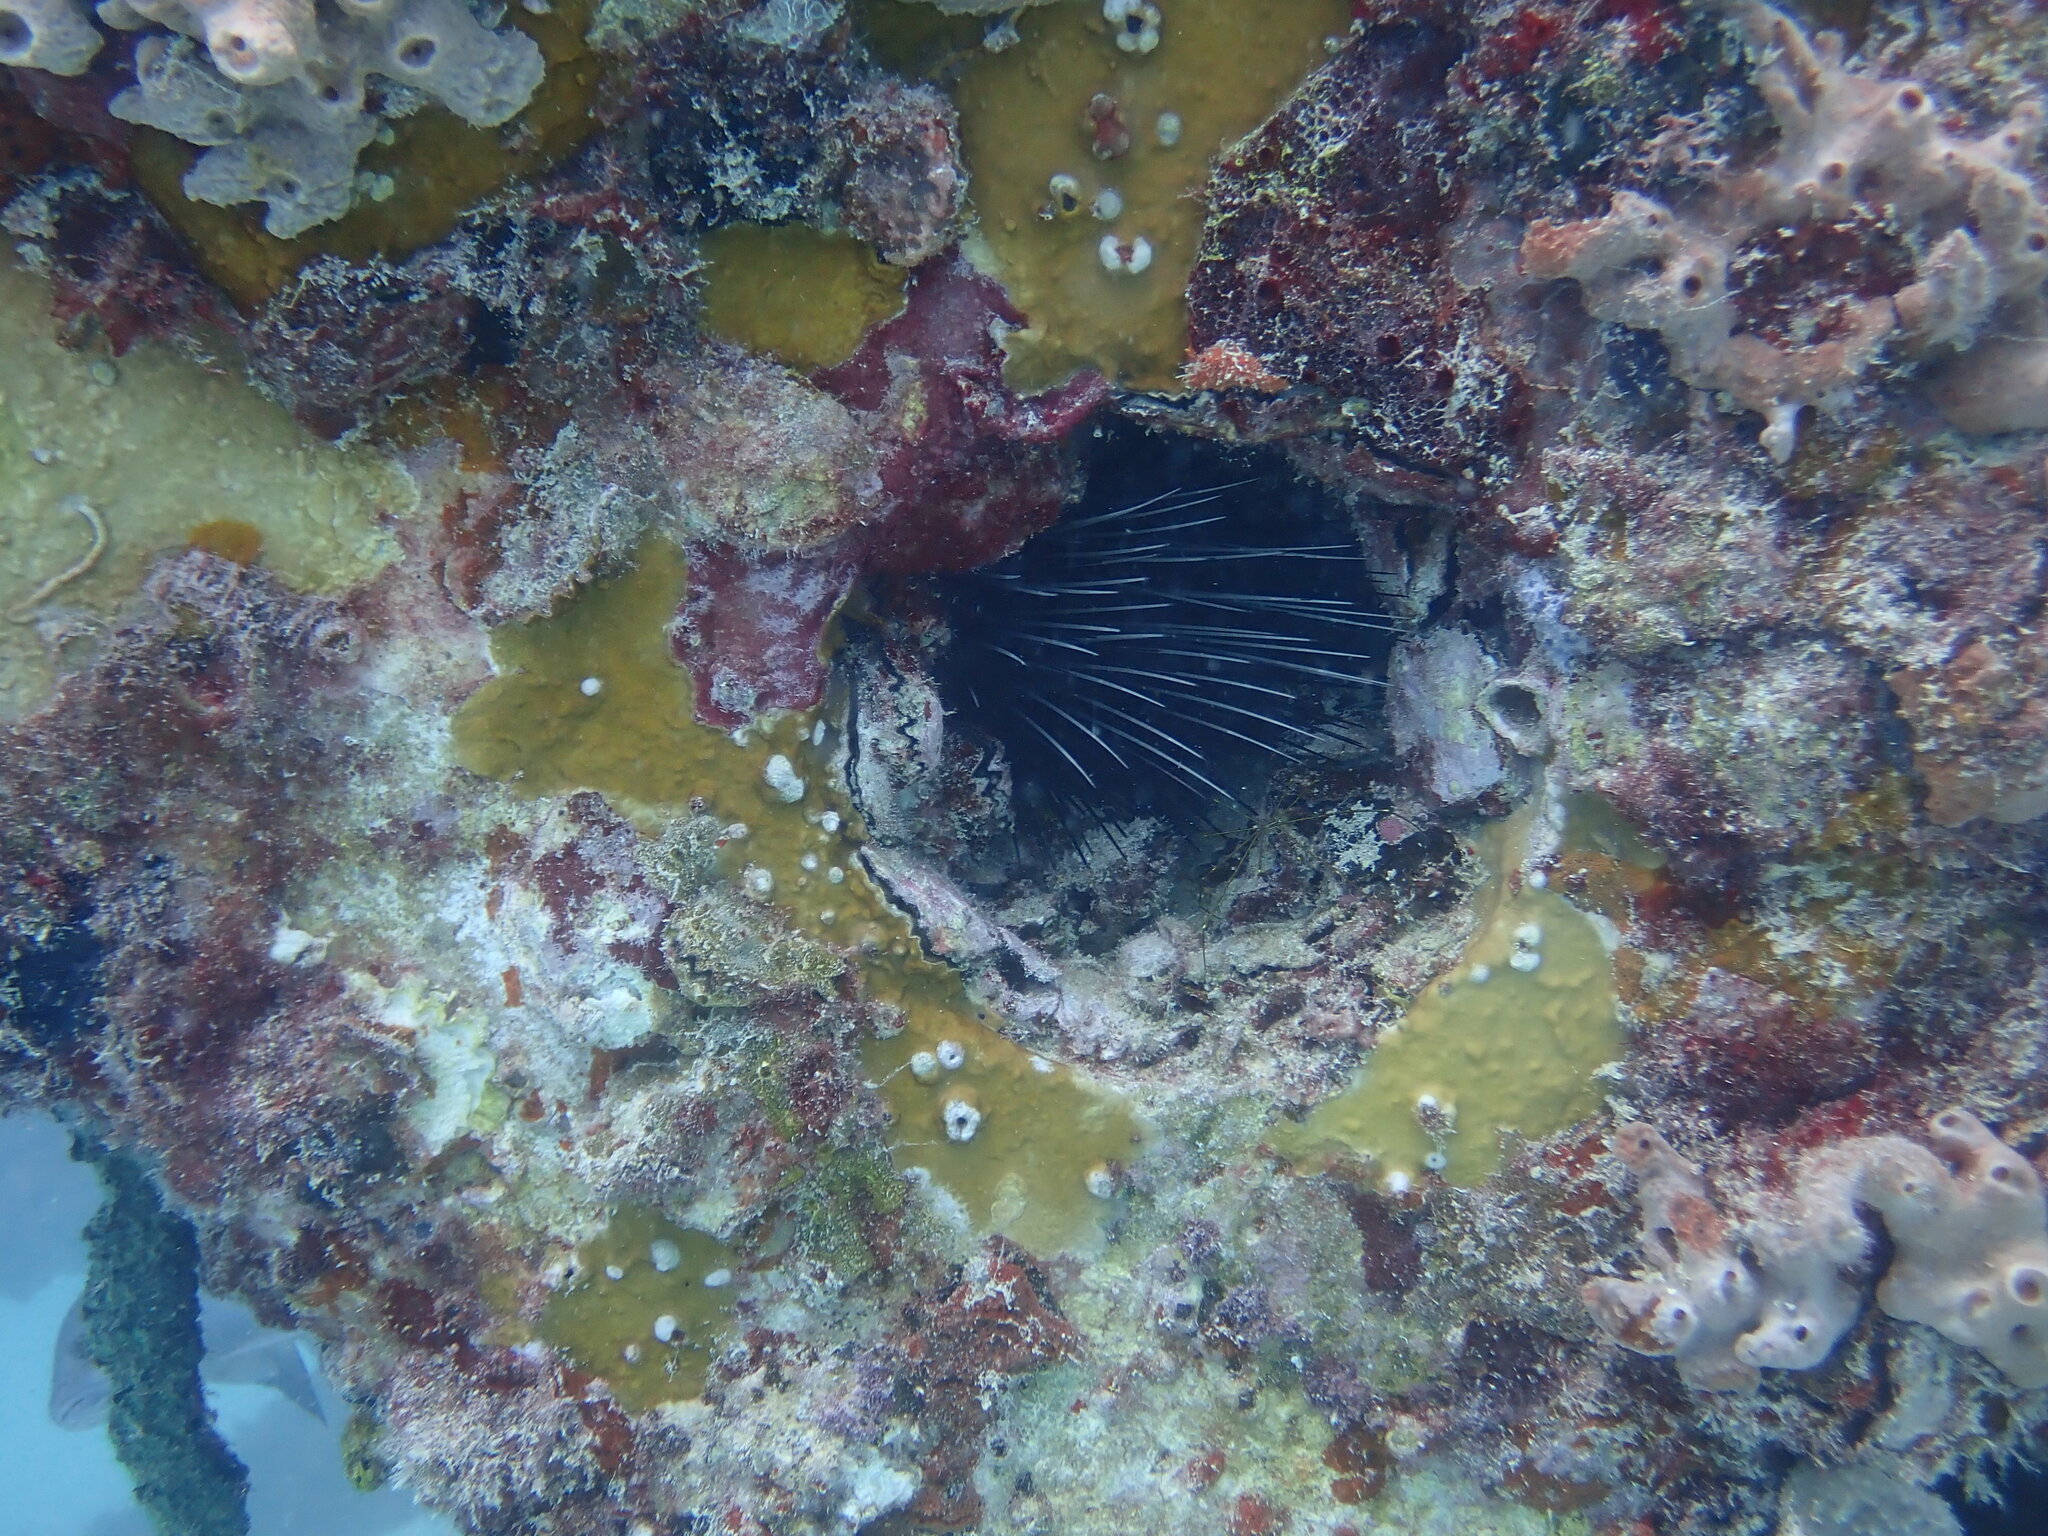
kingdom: Animalia
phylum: Echinodermata
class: Echinoidea
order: Diadematoida
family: Diadematidae
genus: Diadema
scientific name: Diadema antillarum
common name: Spiny urchin
